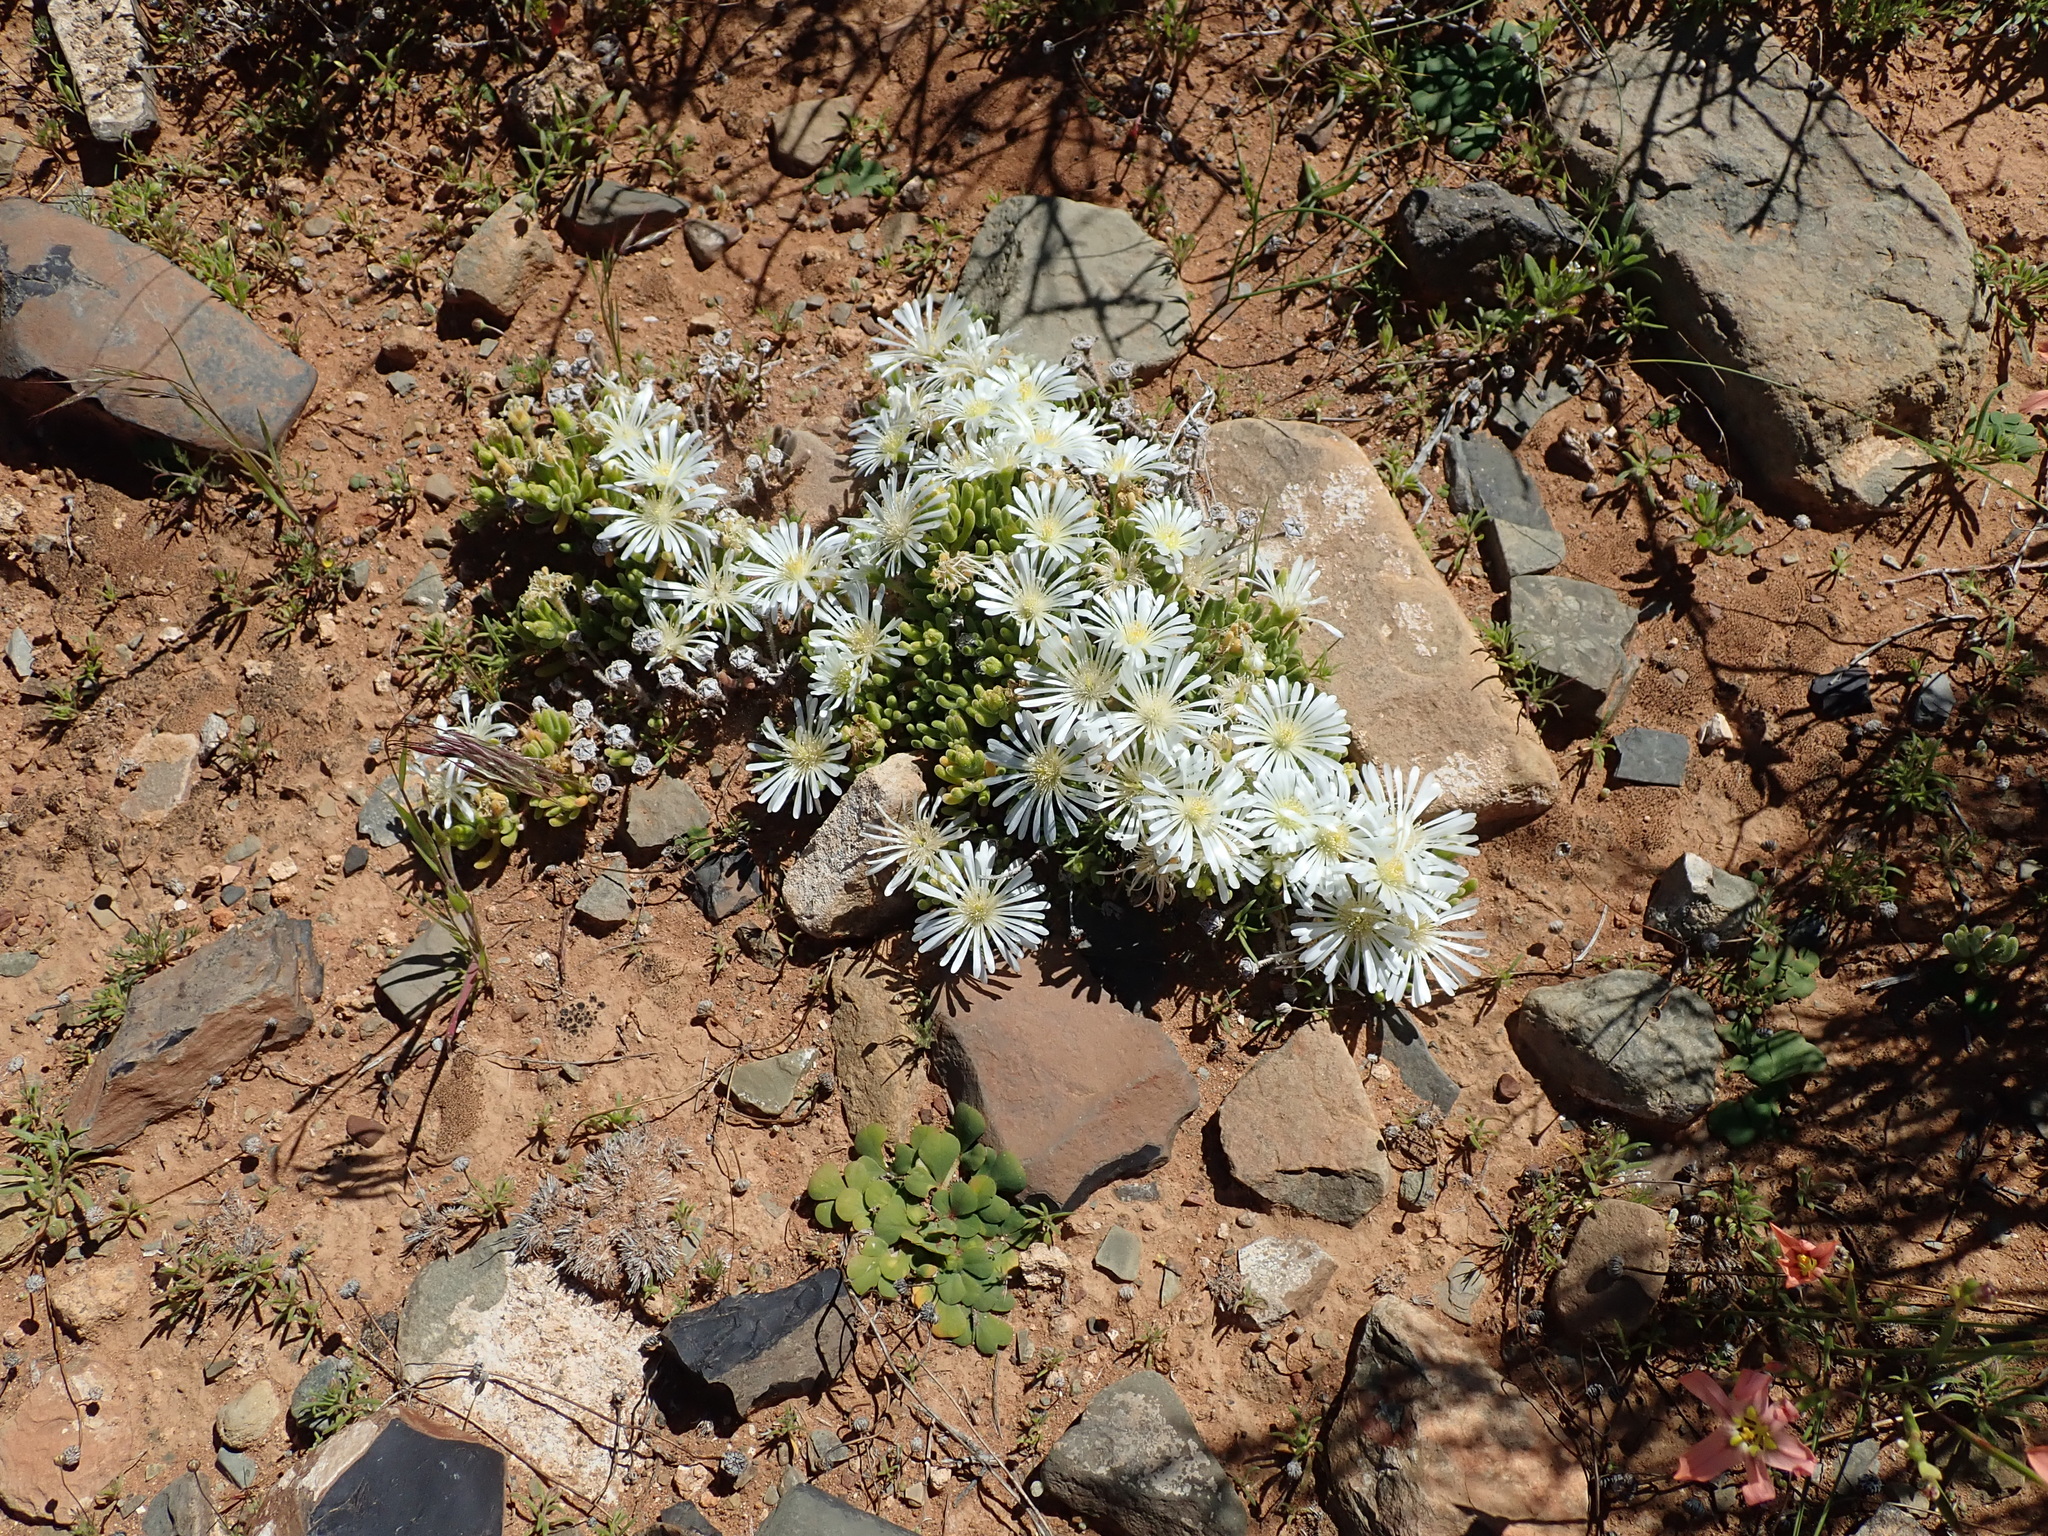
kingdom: Plantae
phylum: Tracheophyta
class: Magnoliopsida
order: Caryophyllales
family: Aizoaceae
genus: Drosanthemum
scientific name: Drosanthemum framesii
